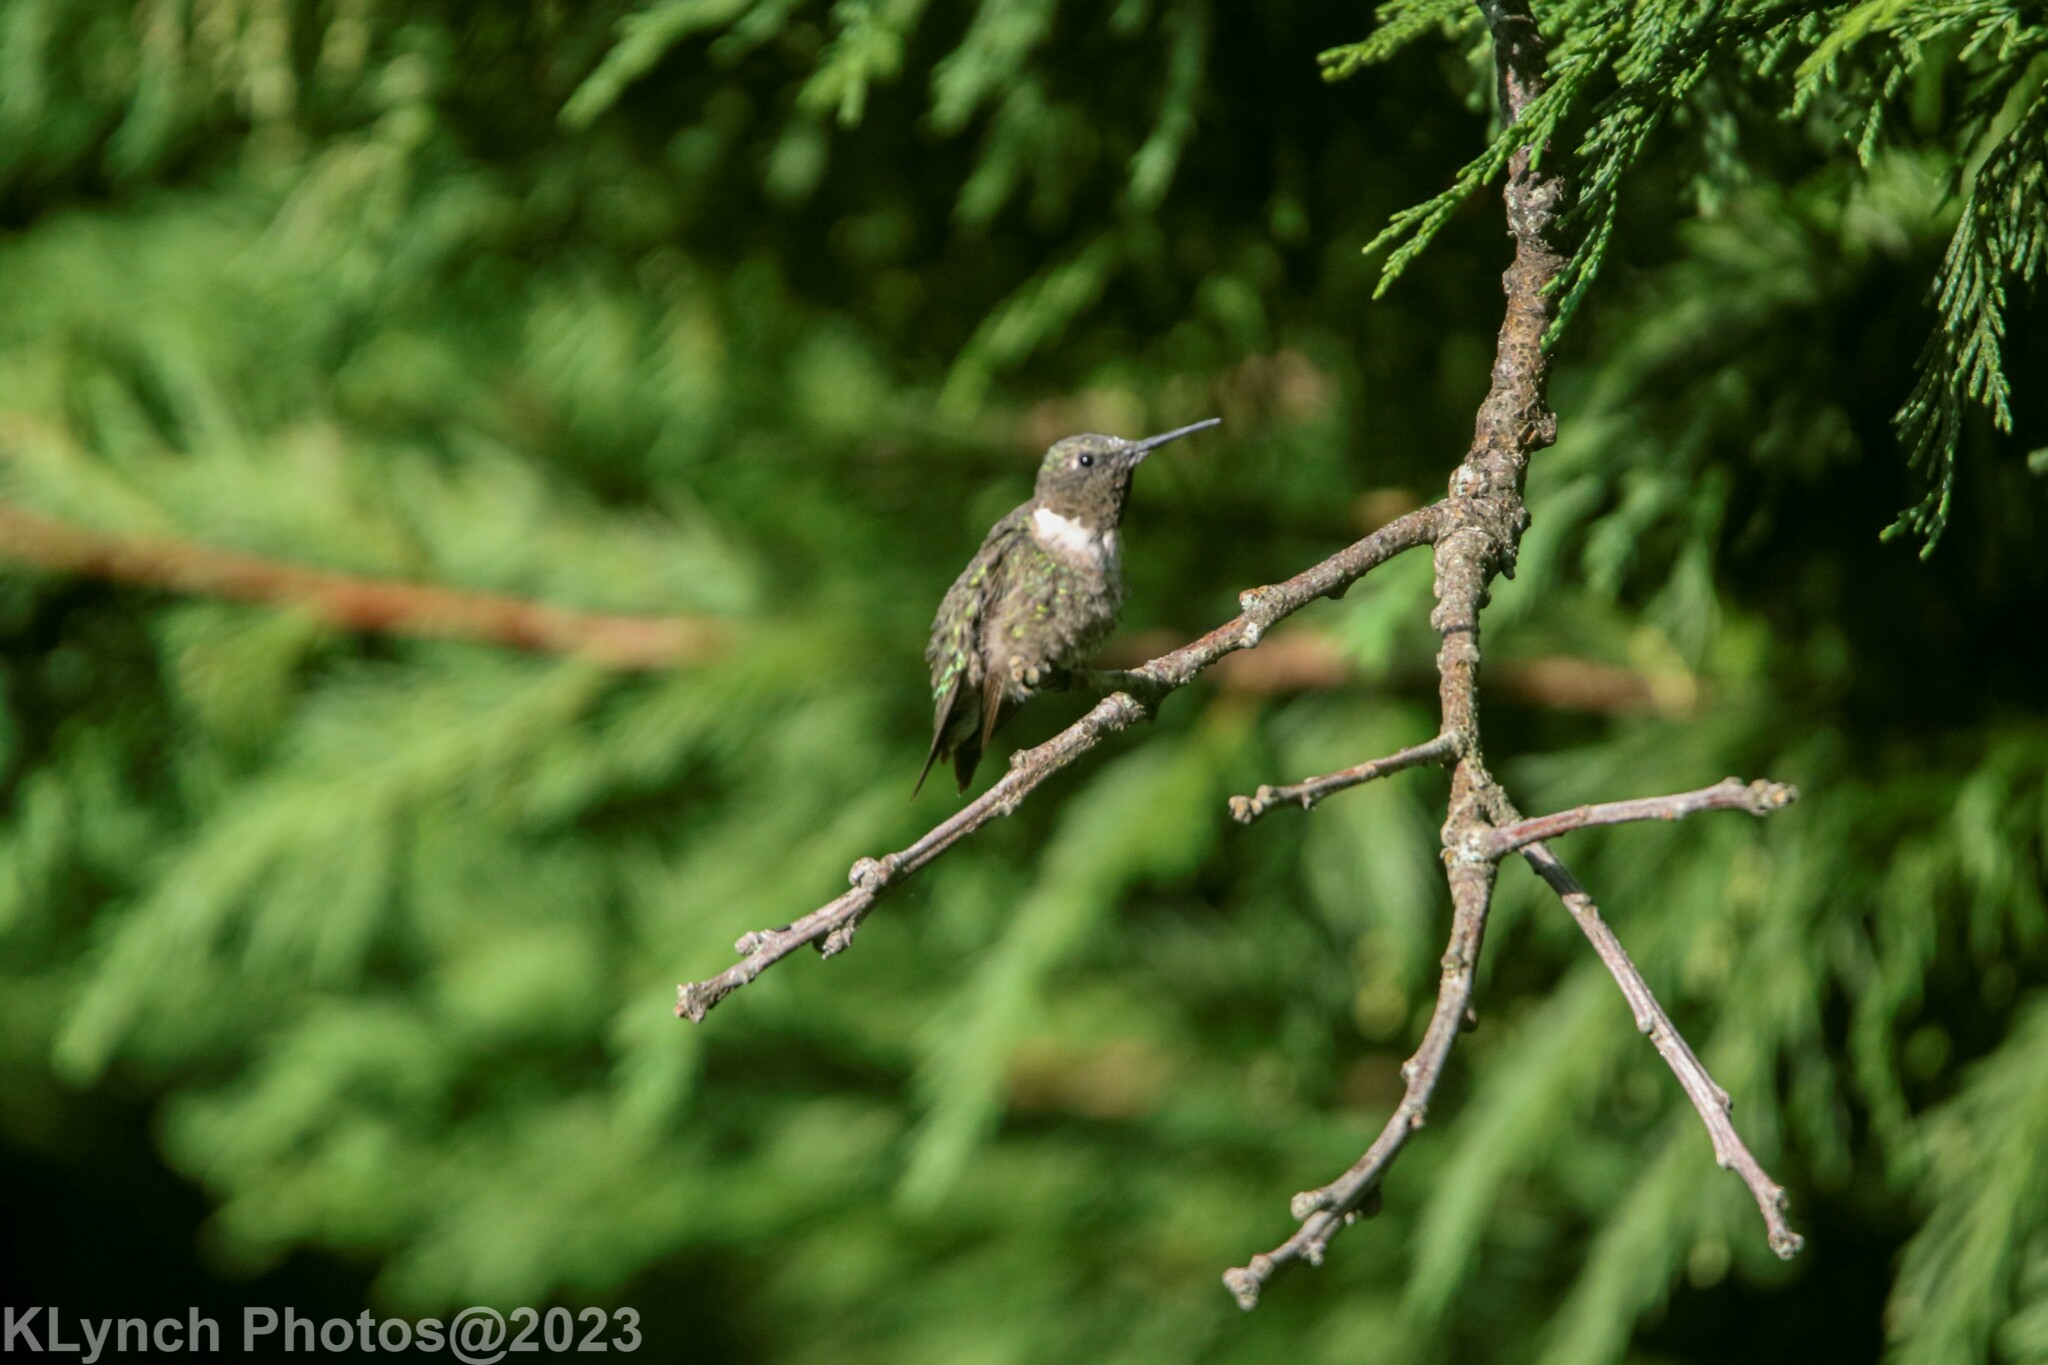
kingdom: Animalia
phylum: Chordata
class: Aves
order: Apodiformes
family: Trochilidae
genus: Archilochus
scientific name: Archilochus colubris
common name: Ruby-throated hummingbird
